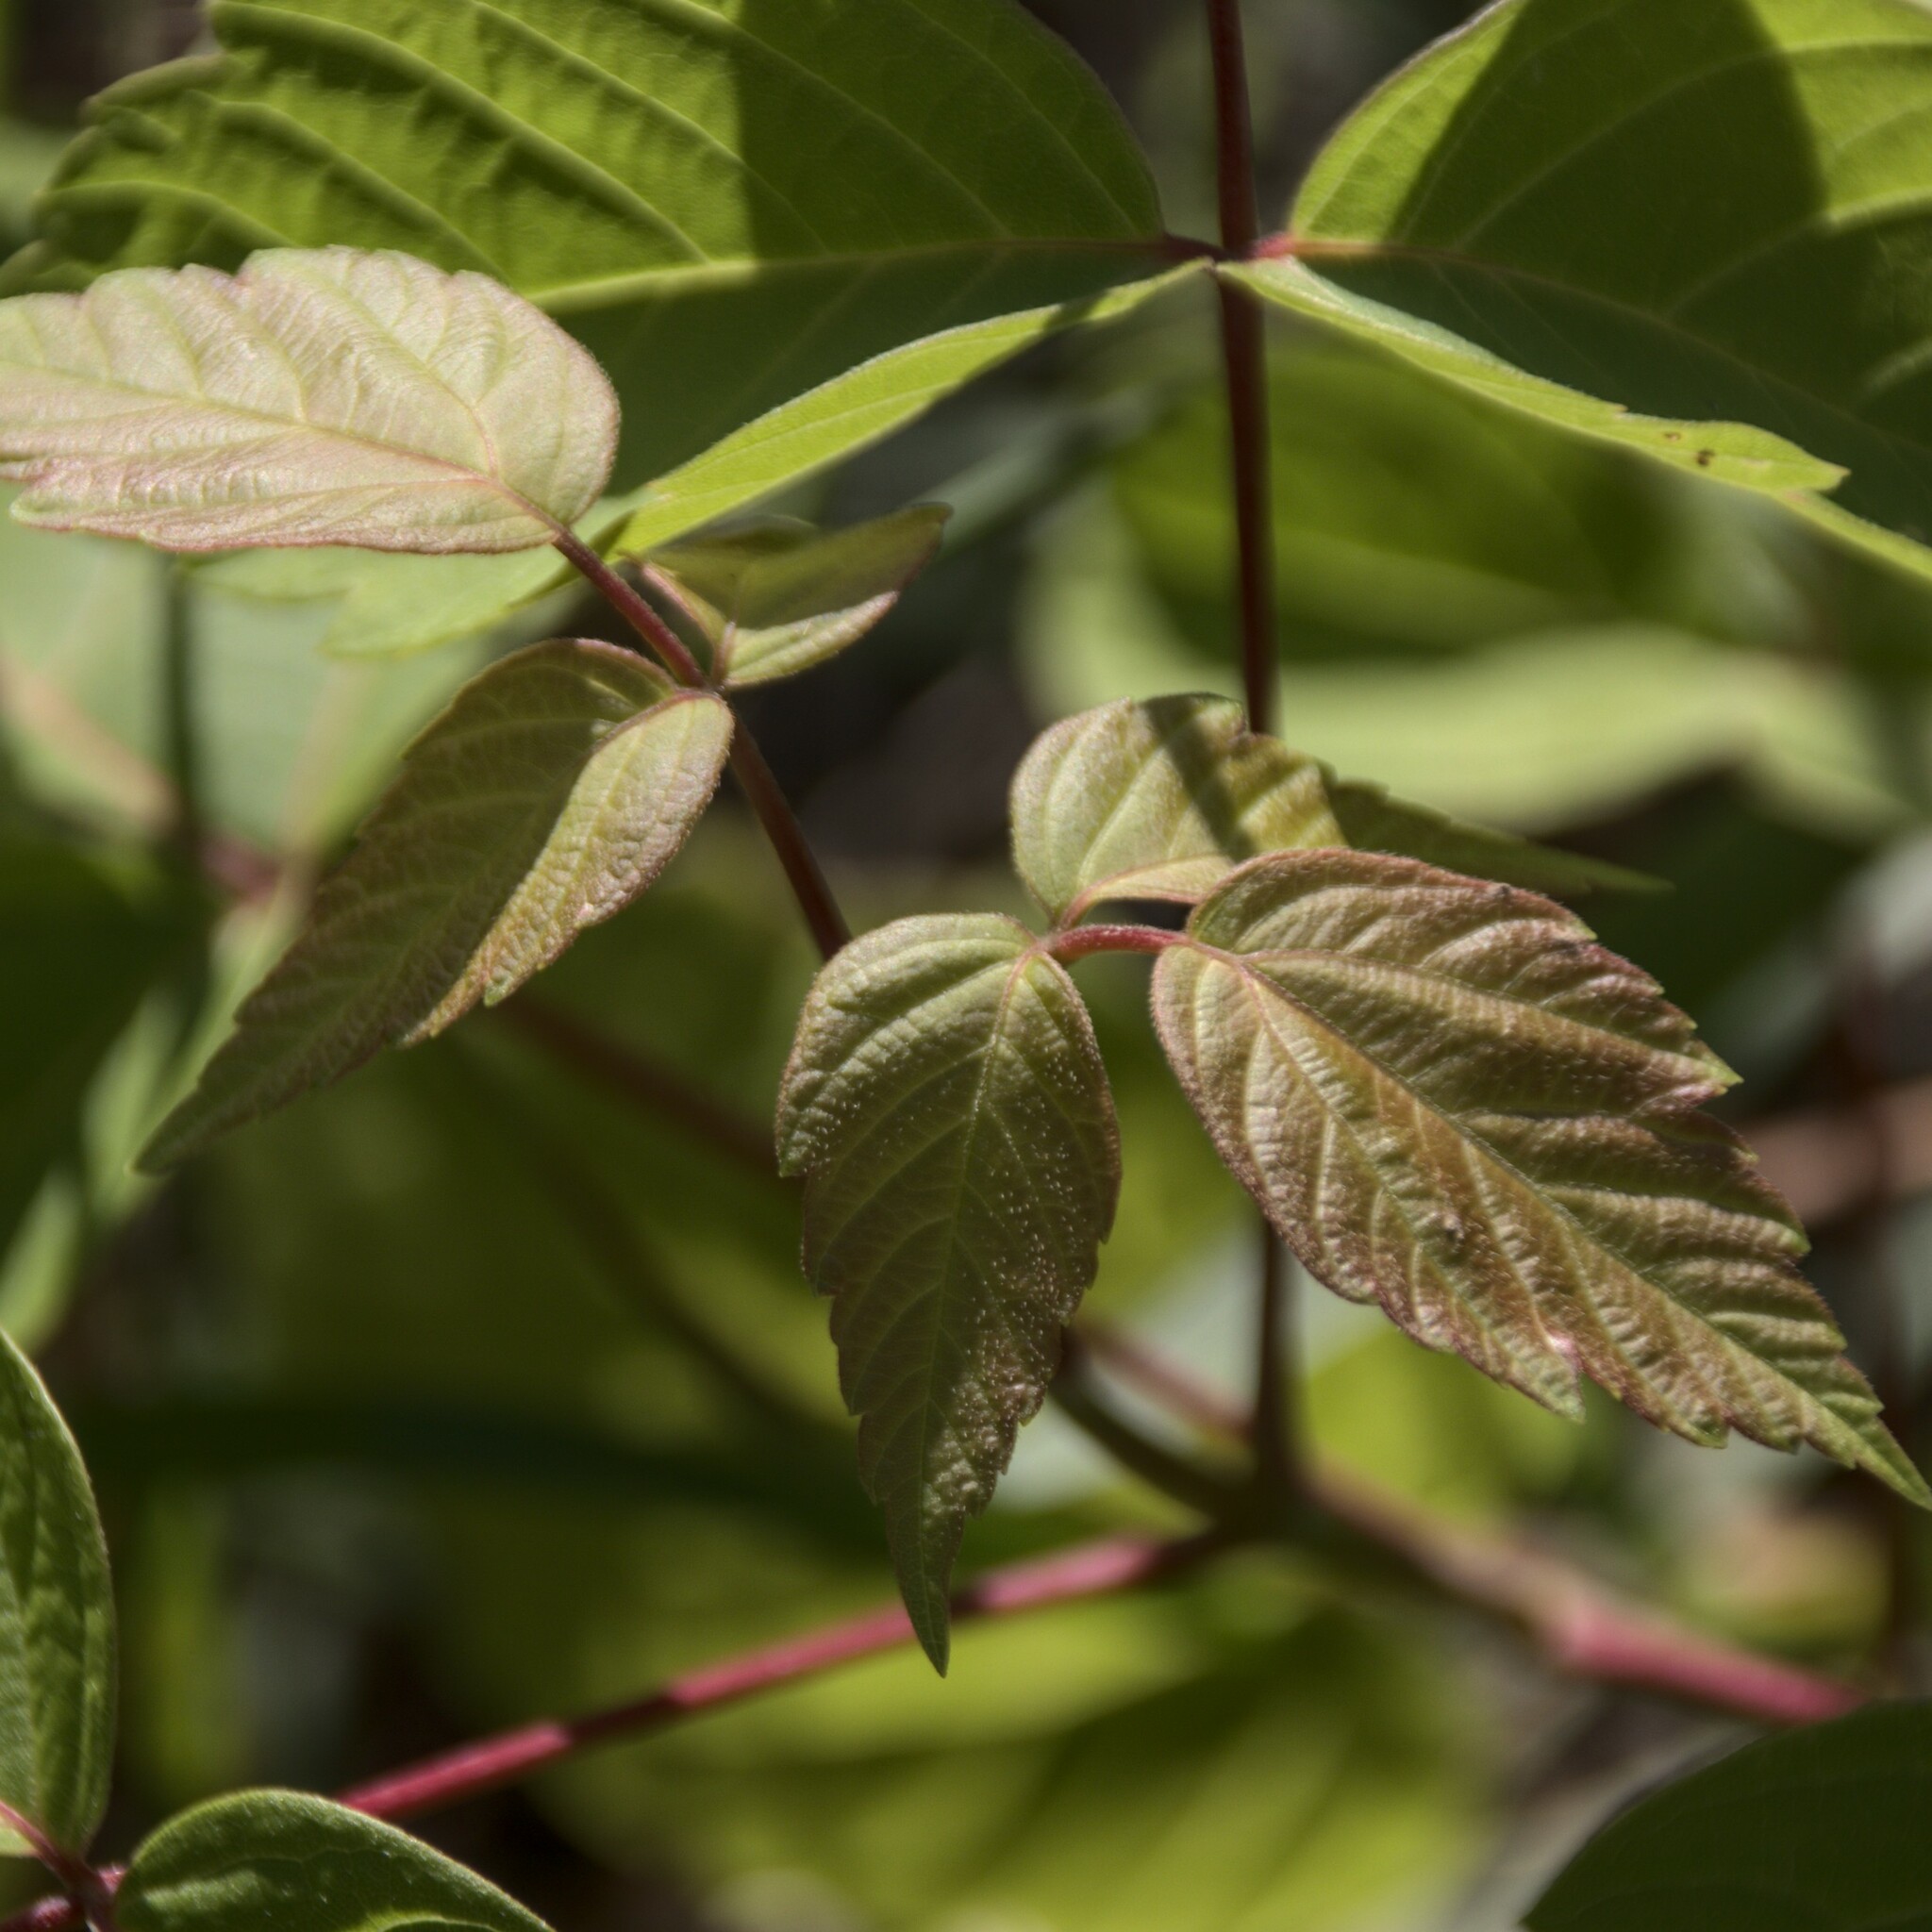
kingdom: Plantae
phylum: Tracheophyta
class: Magnoliopsida
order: Sapindales
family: Sapindaceae
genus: Acer
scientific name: Acer negundo
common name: Ashleaf maple
